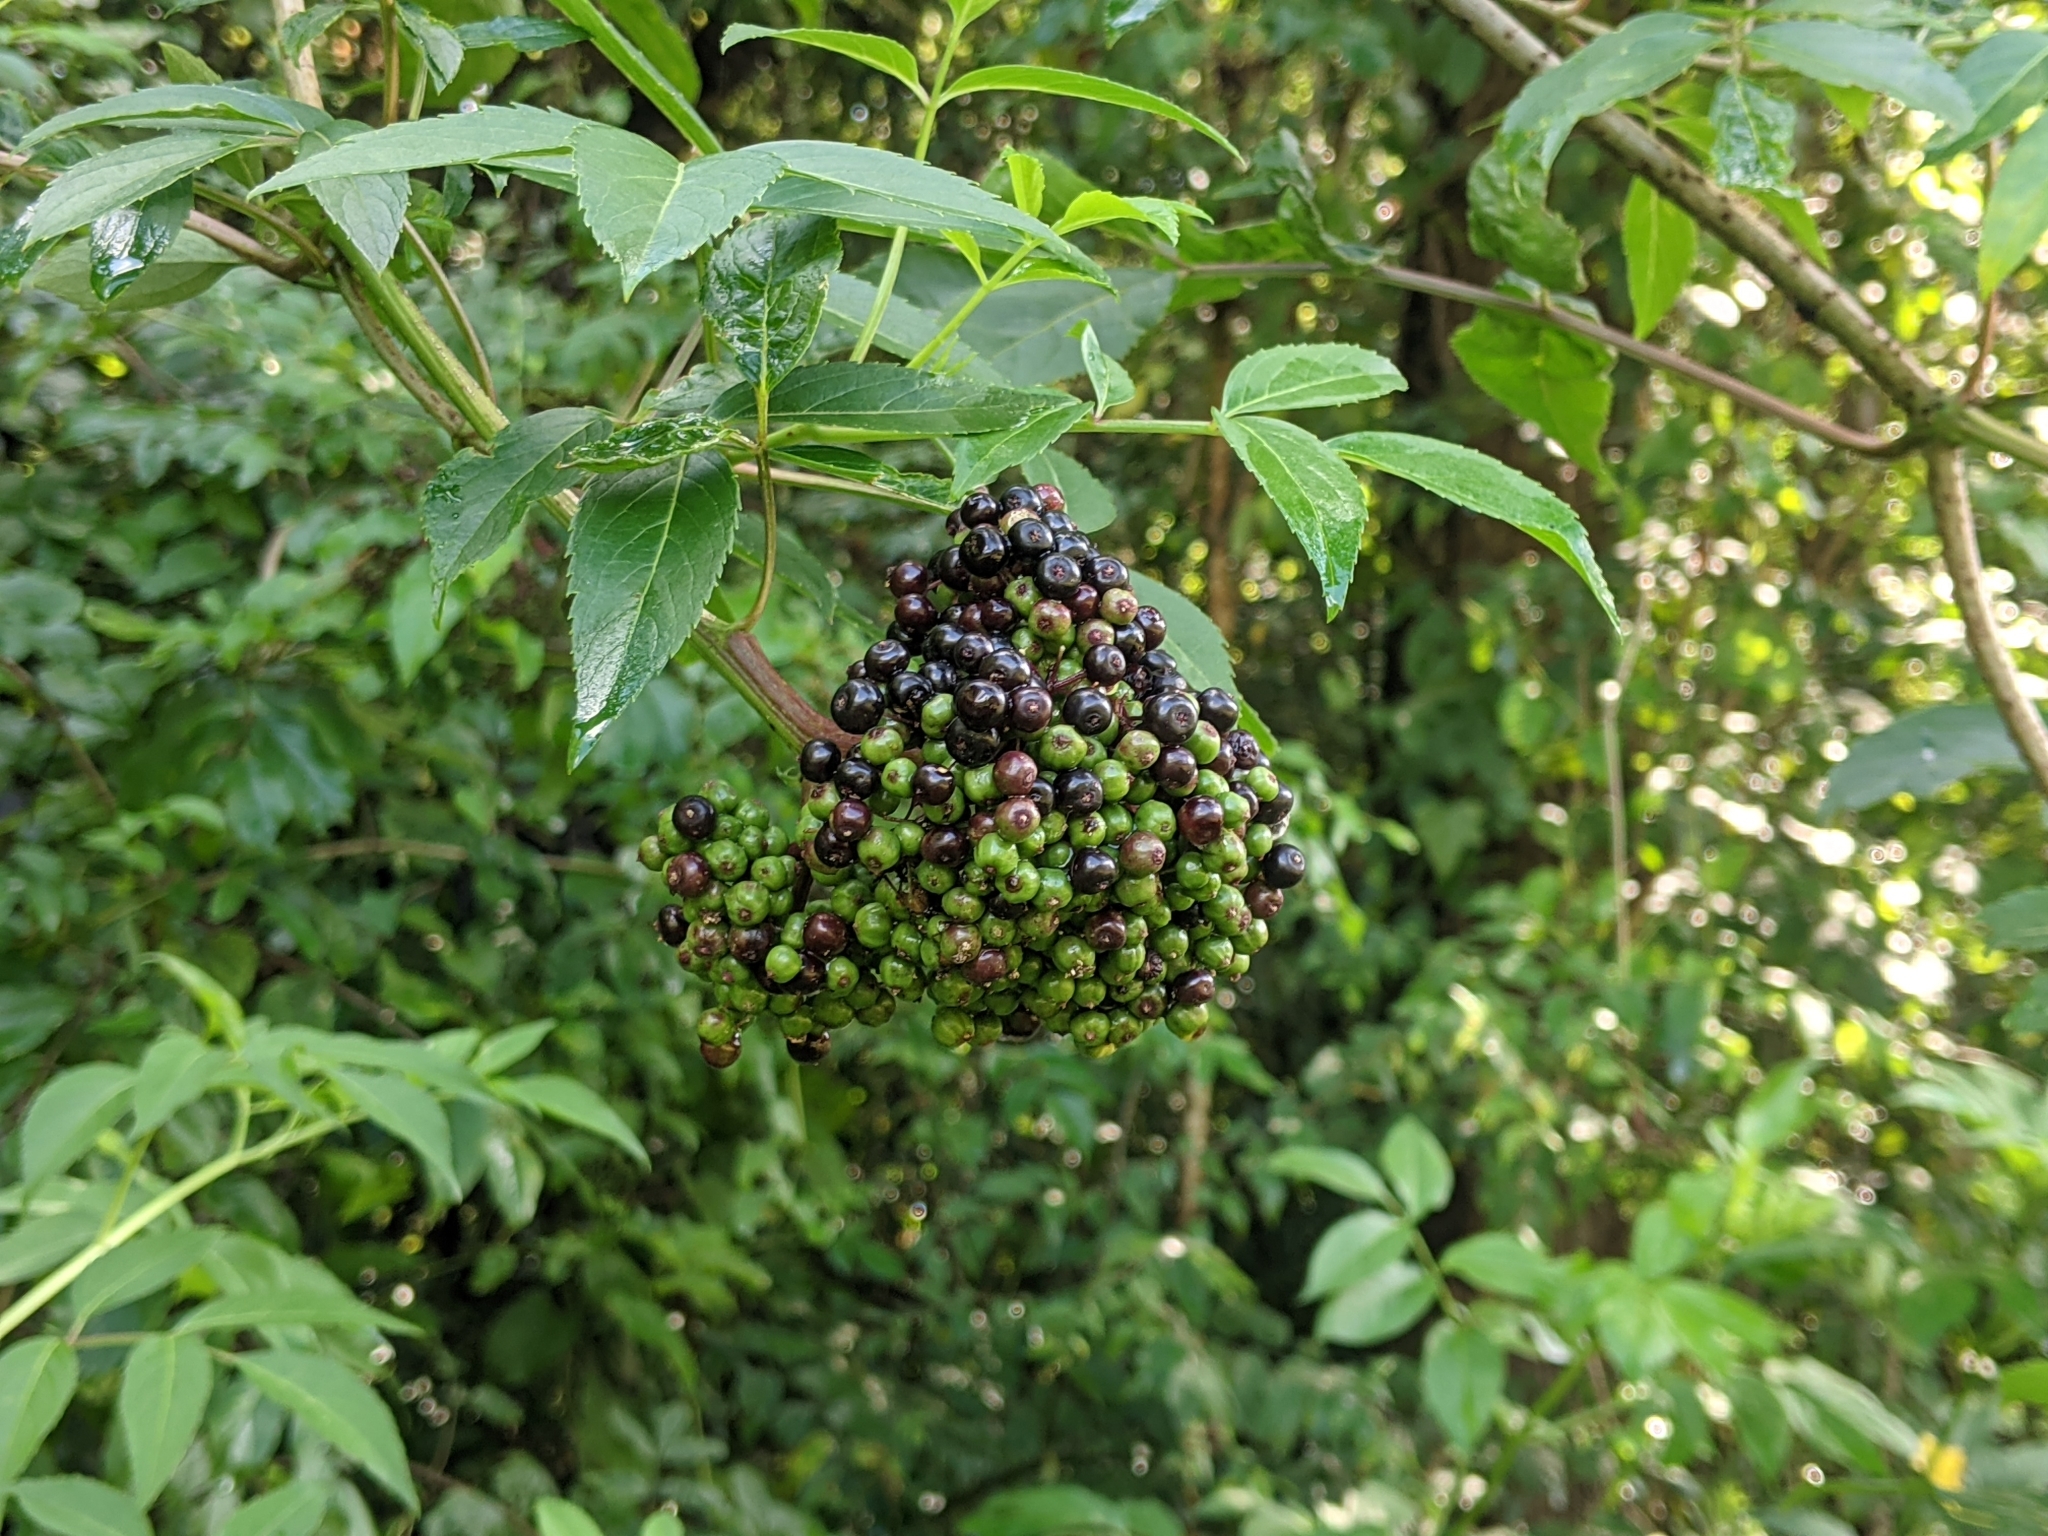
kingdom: Plantae
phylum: Tracheophyta
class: Magnoliopsida
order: Dipsacales
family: Viburnaceae
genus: Sambucus
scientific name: Sambucus canadensis
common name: American elder
